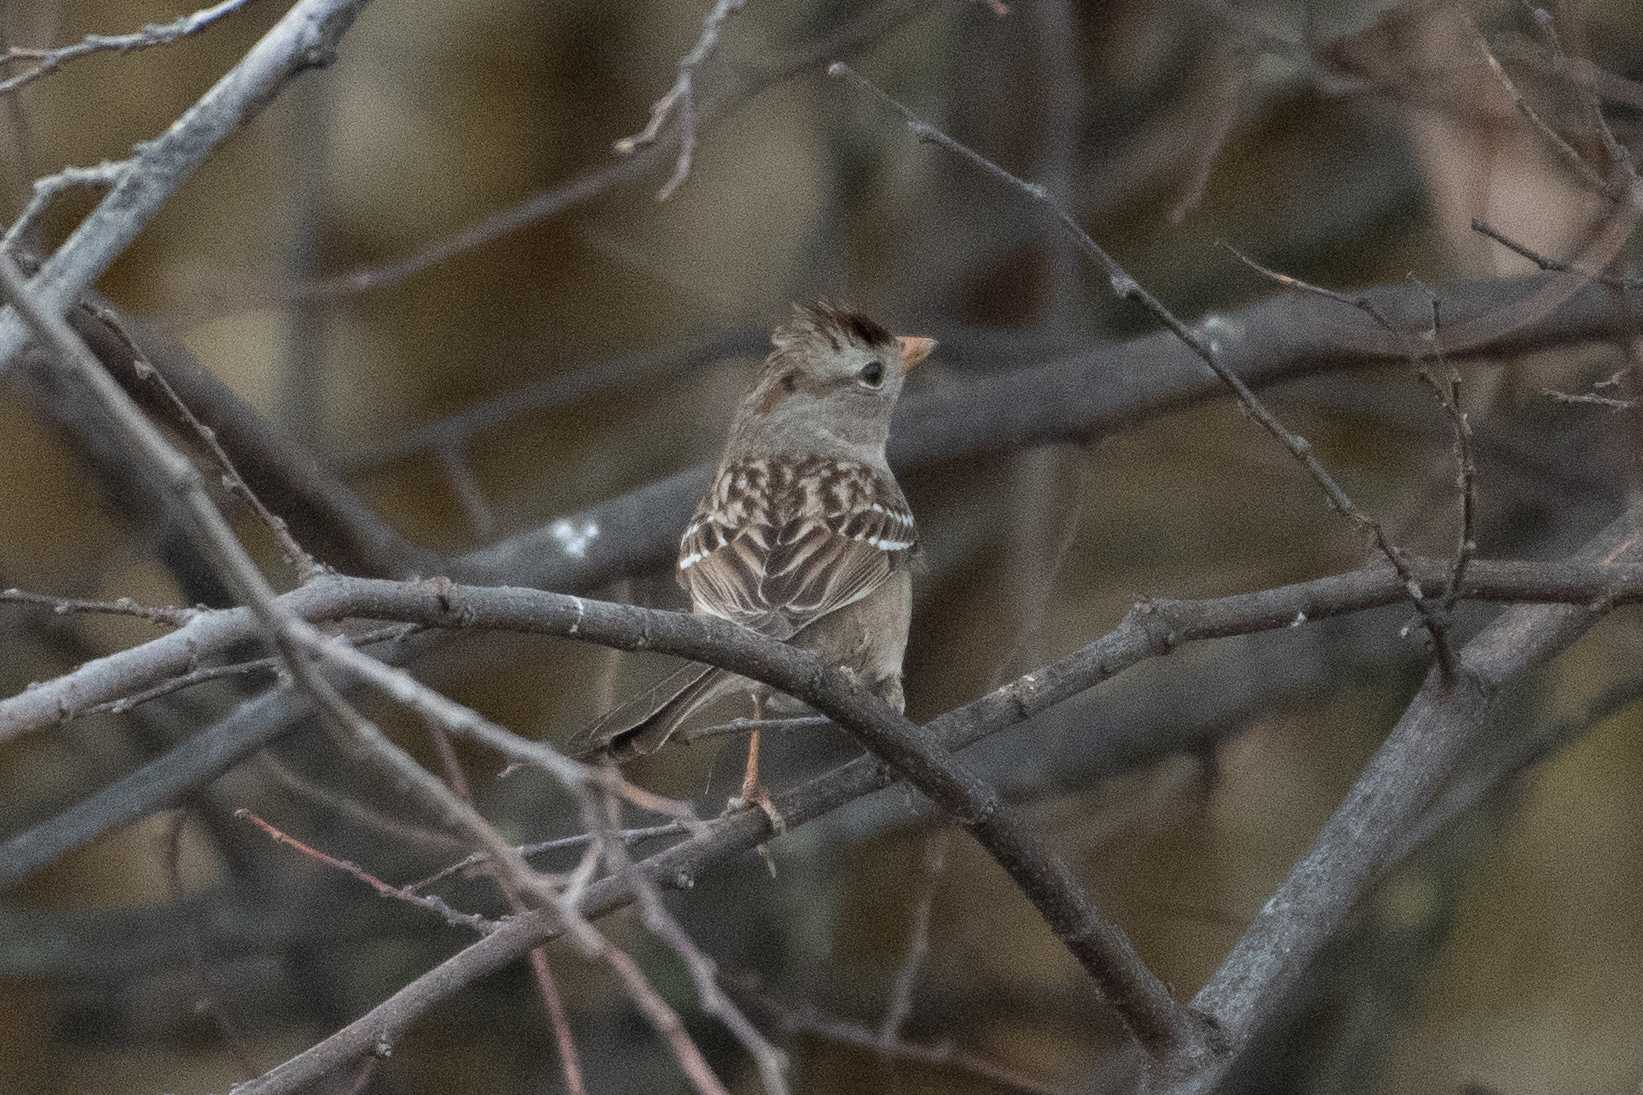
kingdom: Animalia
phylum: Chordata
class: Aves
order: Passeriformes
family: Passerellidae
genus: Zonotrichia
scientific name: Zonotrichia leucophrys
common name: White-crowned sparrow
